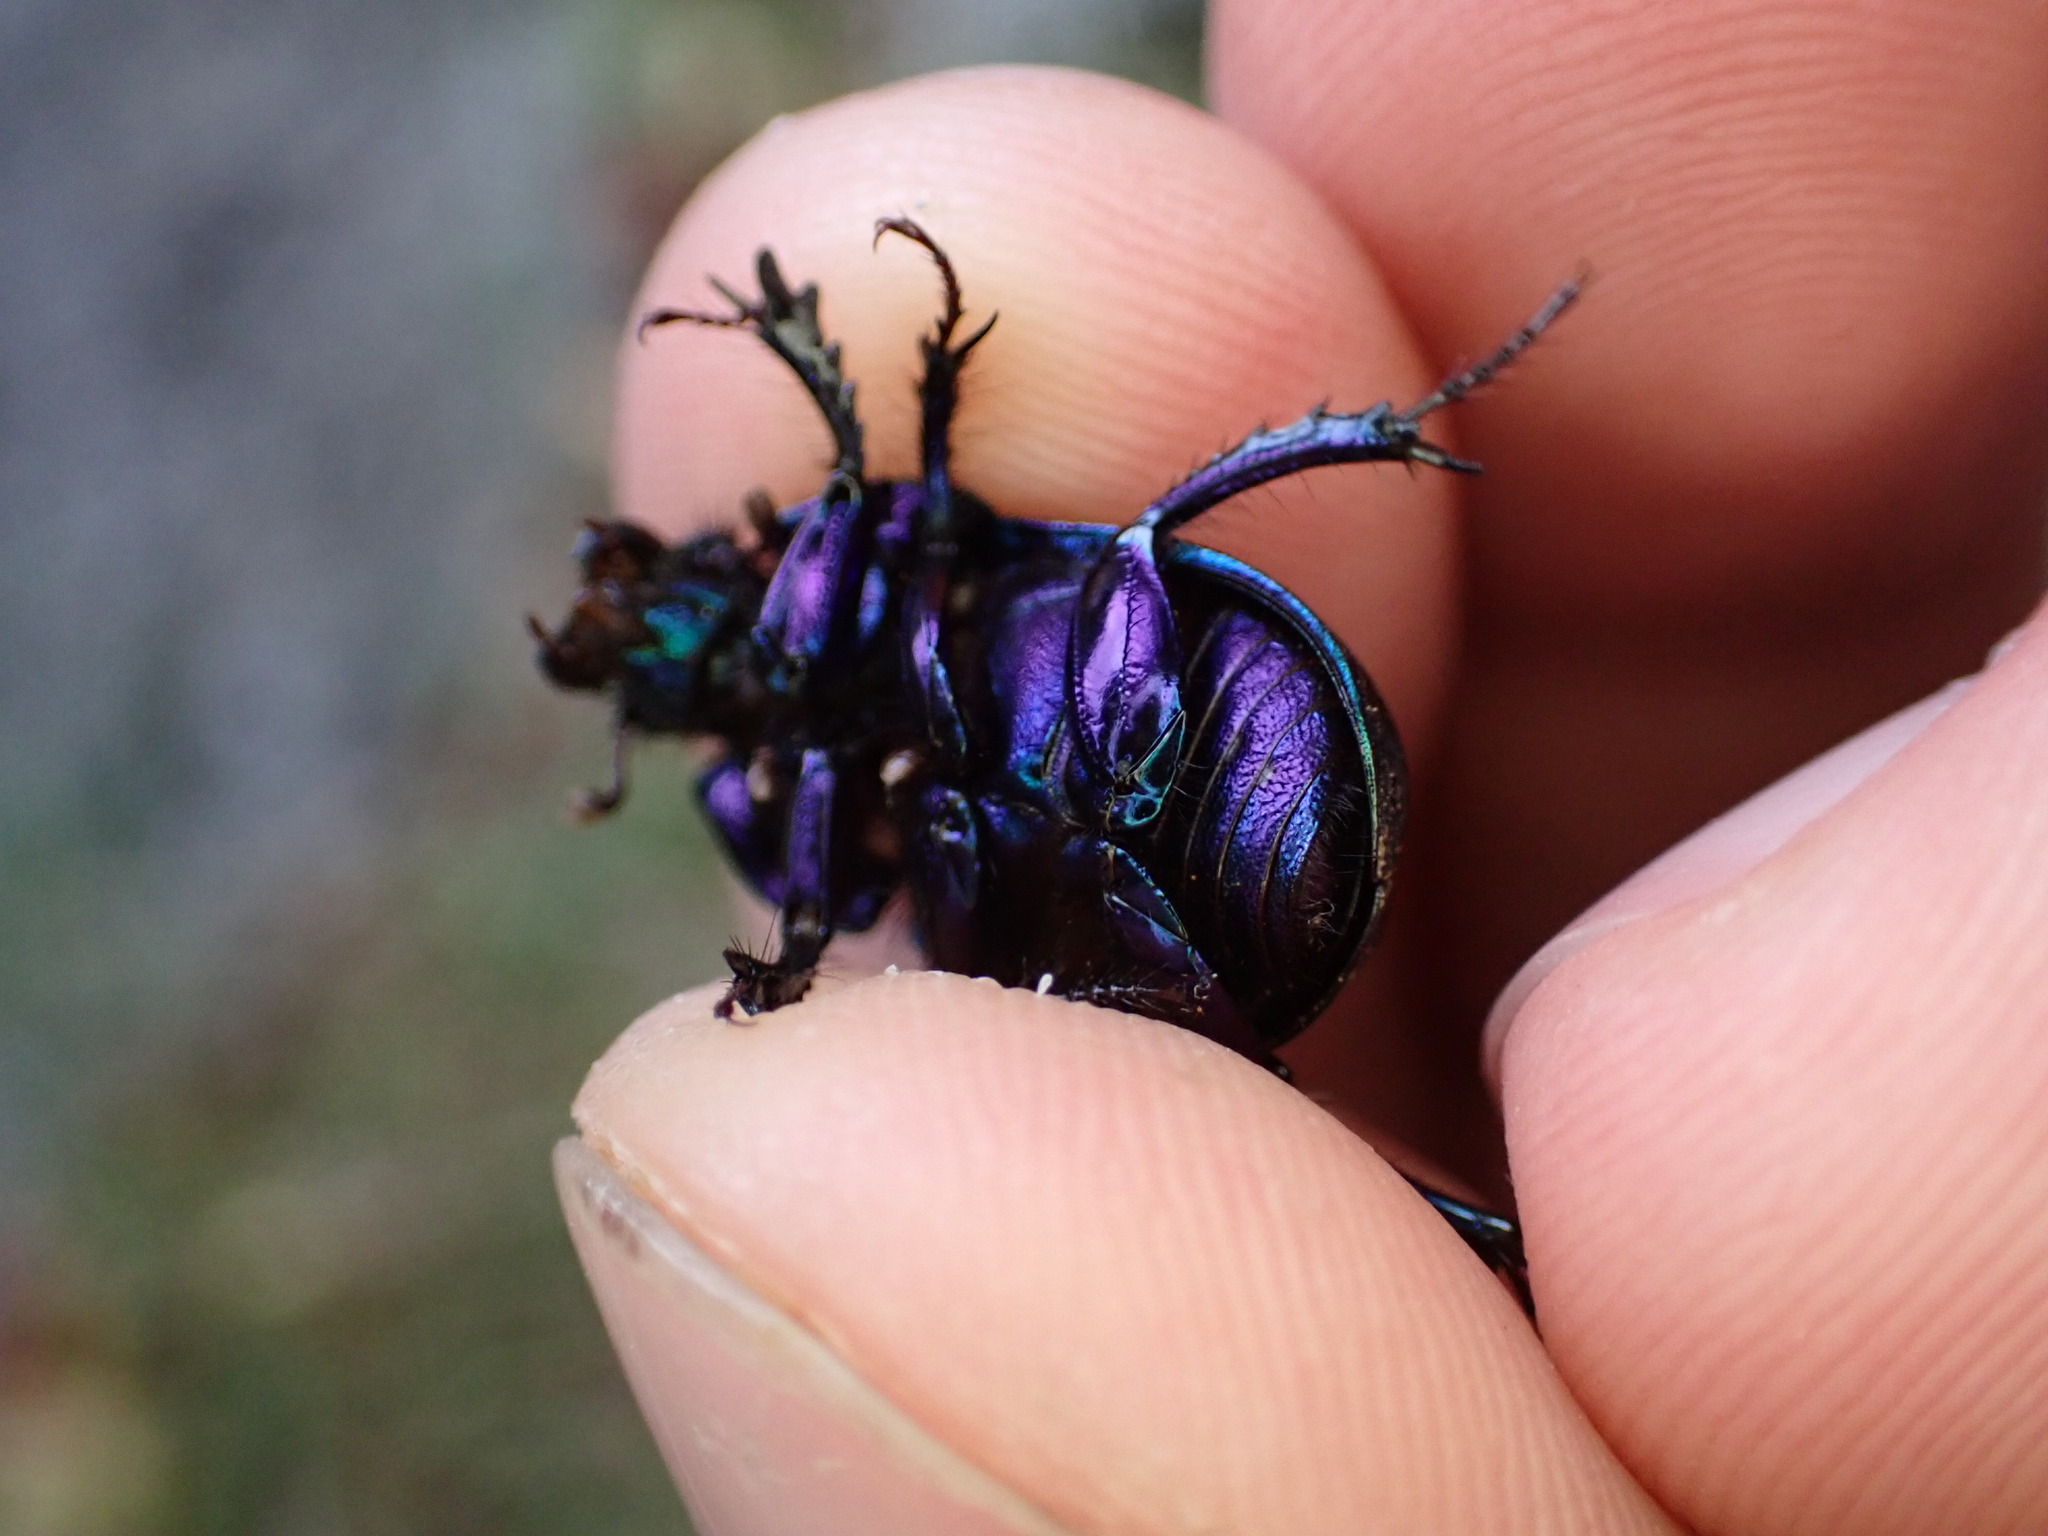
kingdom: Animalia
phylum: Arthropoda
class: Insecta
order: Coleoptera
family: Geotrupidae
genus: Anoplotrupes
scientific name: Anoplotrupes stercorosus
